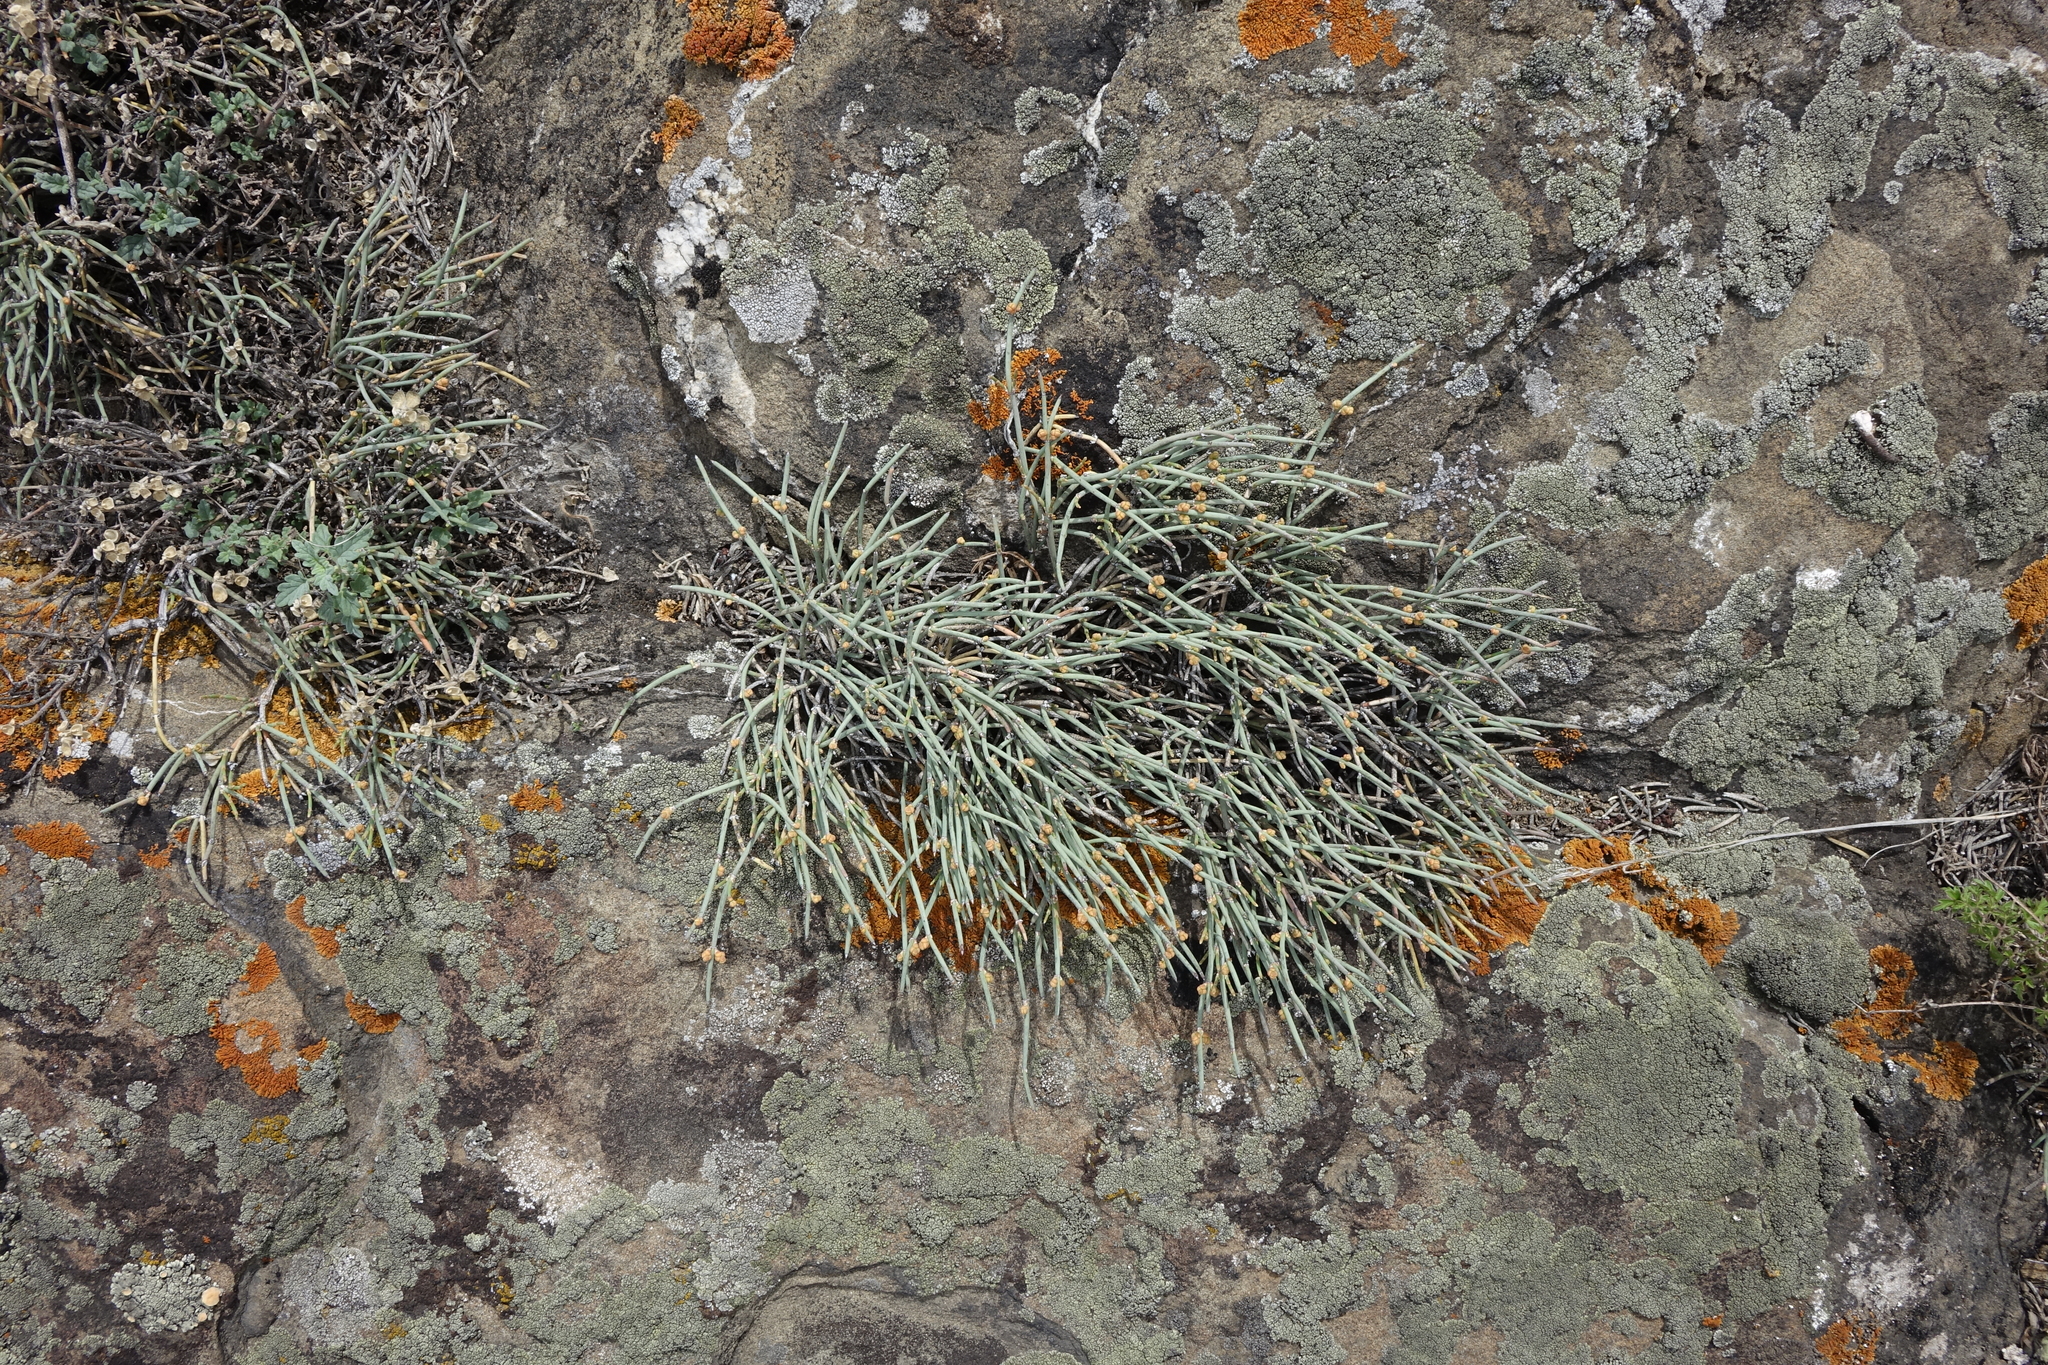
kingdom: Plantae
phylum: Tracheophyta
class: Gnetopsida
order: Ephedrales
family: Ephedraceae
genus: Ephedra
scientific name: Ephedra monosperma
